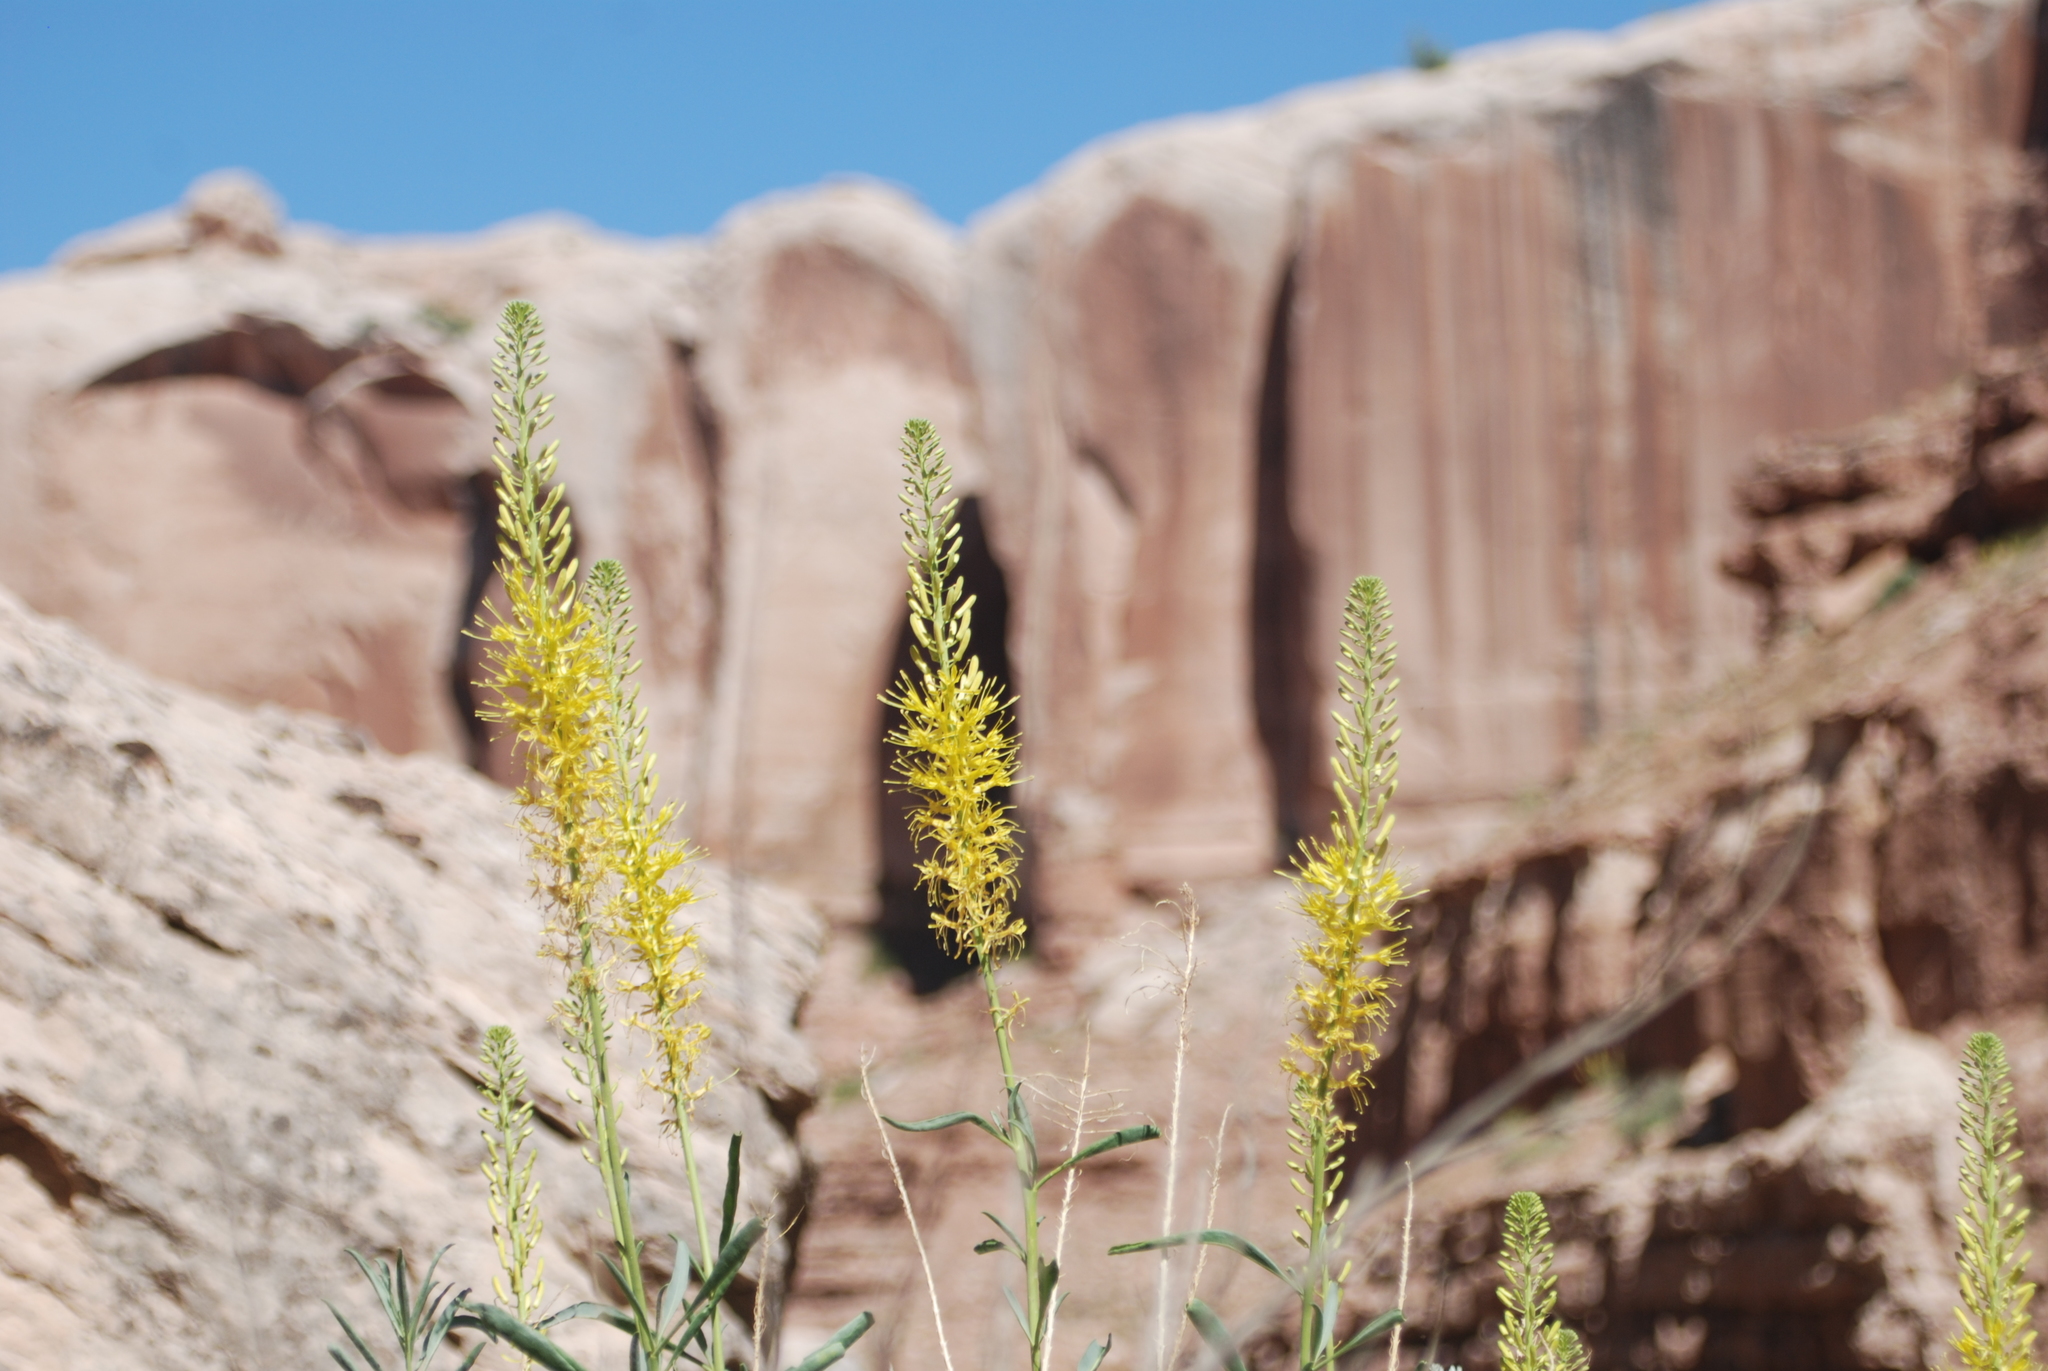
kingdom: Plantae
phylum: Tracheophyta
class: Magnoliopsida
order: Brassicales
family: Brassicaceae
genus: Stanleya
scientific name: Stanleya pinnata
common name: Prince's-plume
